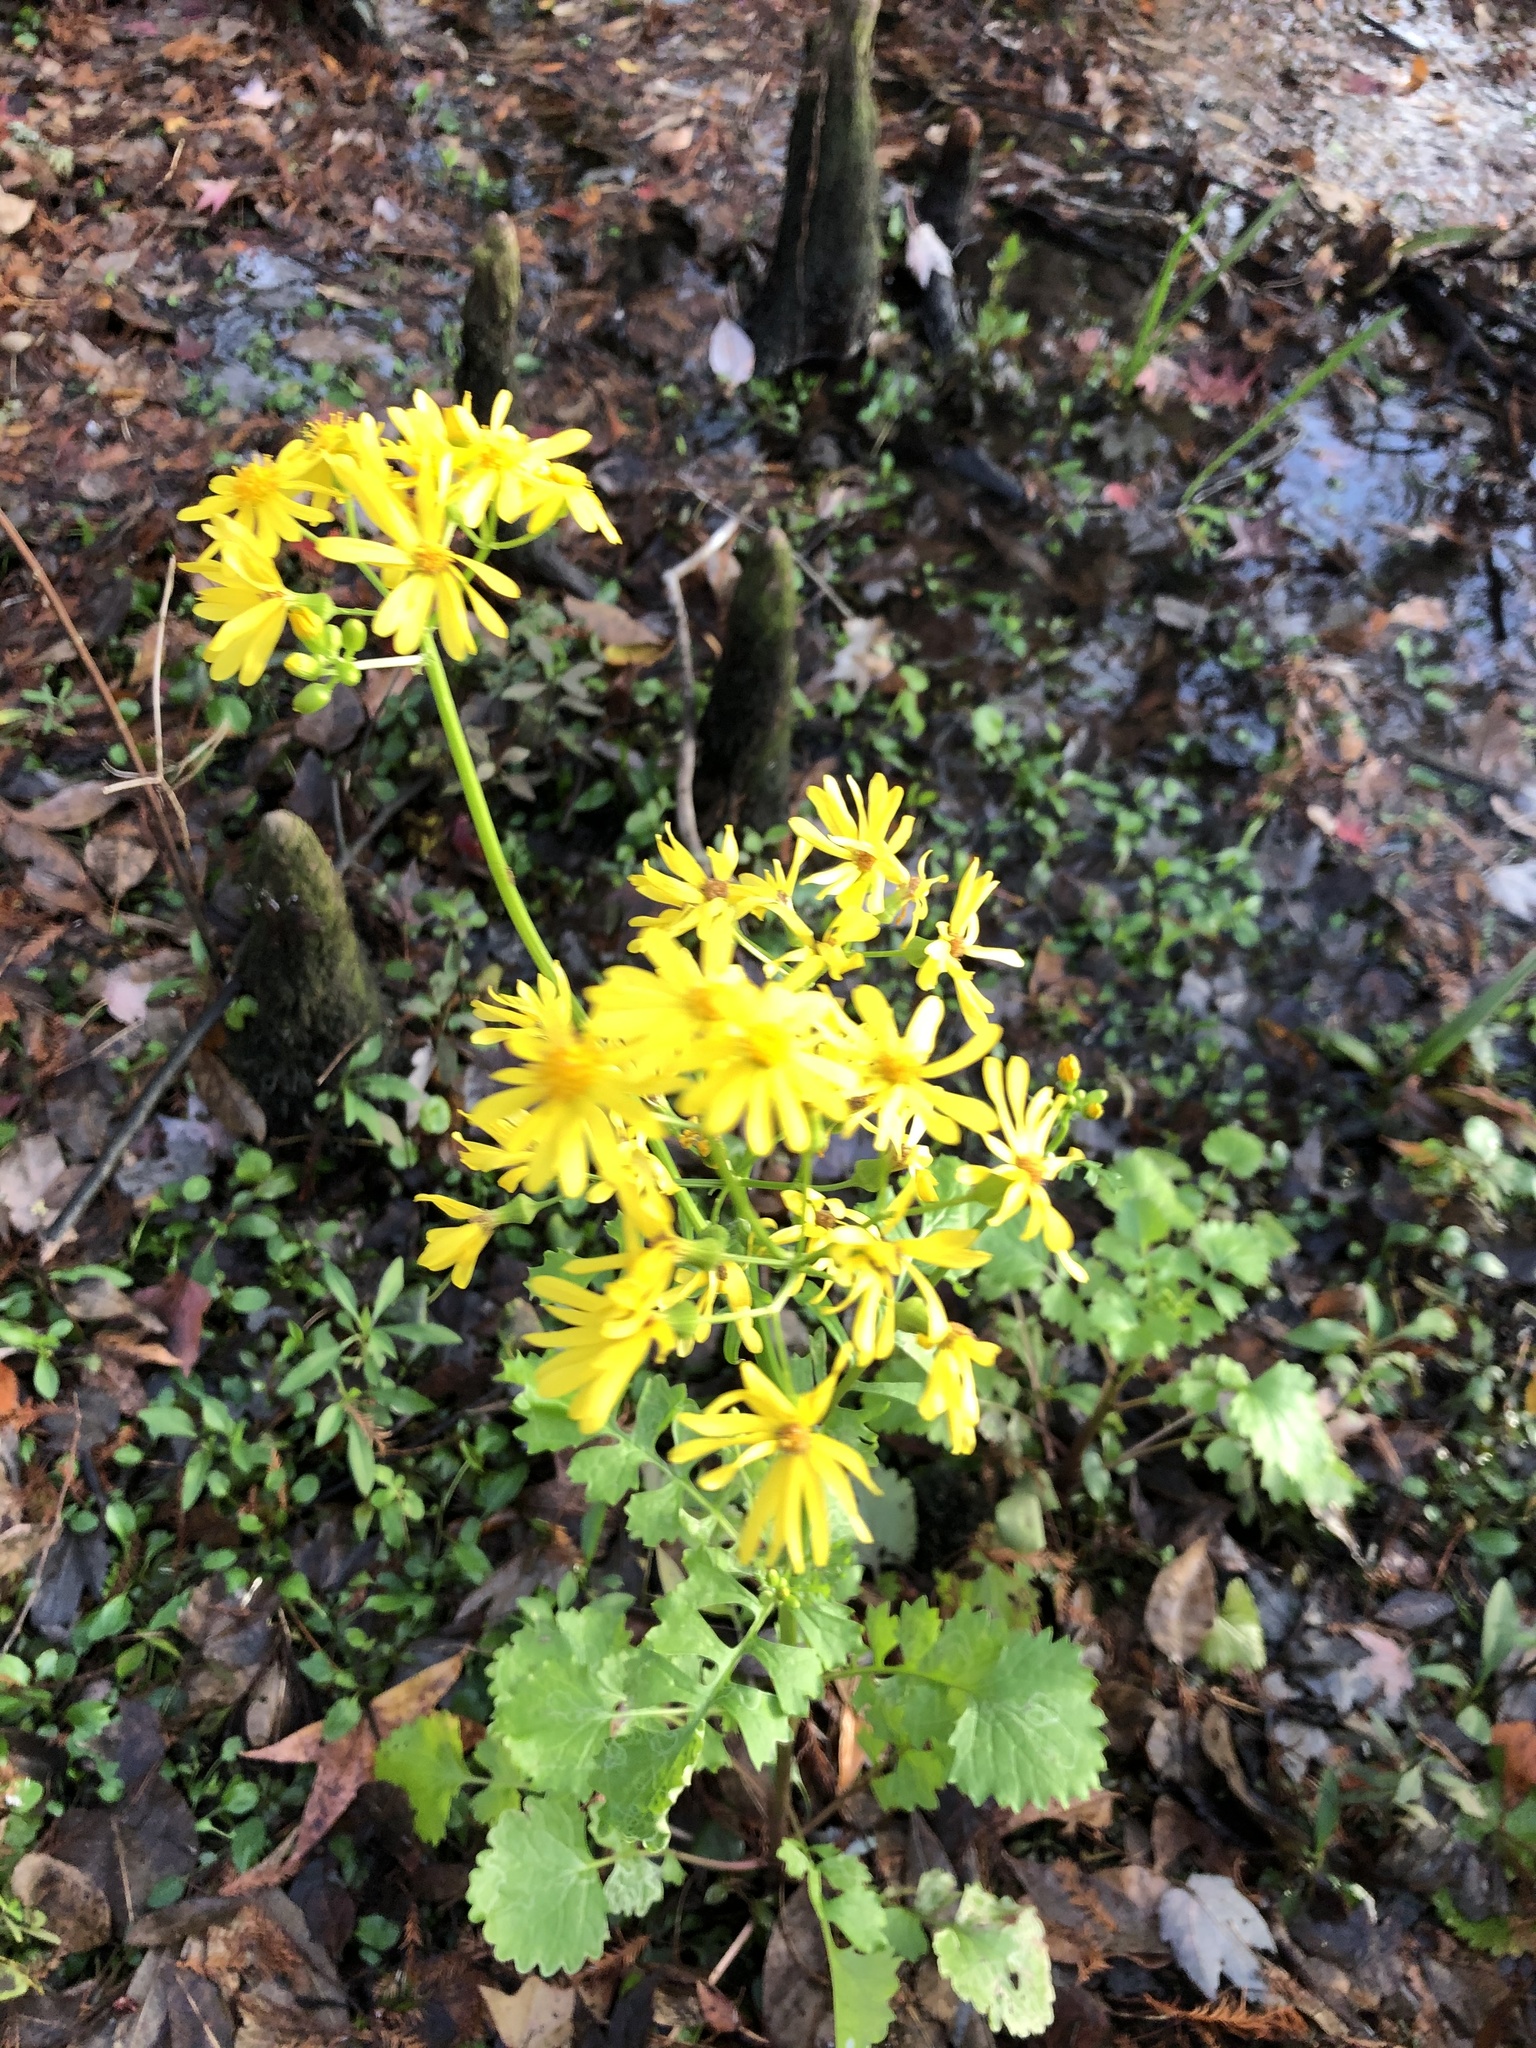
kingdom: Plantae
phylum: Tracheophyta
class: Magnoliopsida
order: Asterales
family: Asteraceae
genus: Packera
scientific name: Packera glabella
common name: Butterweed
